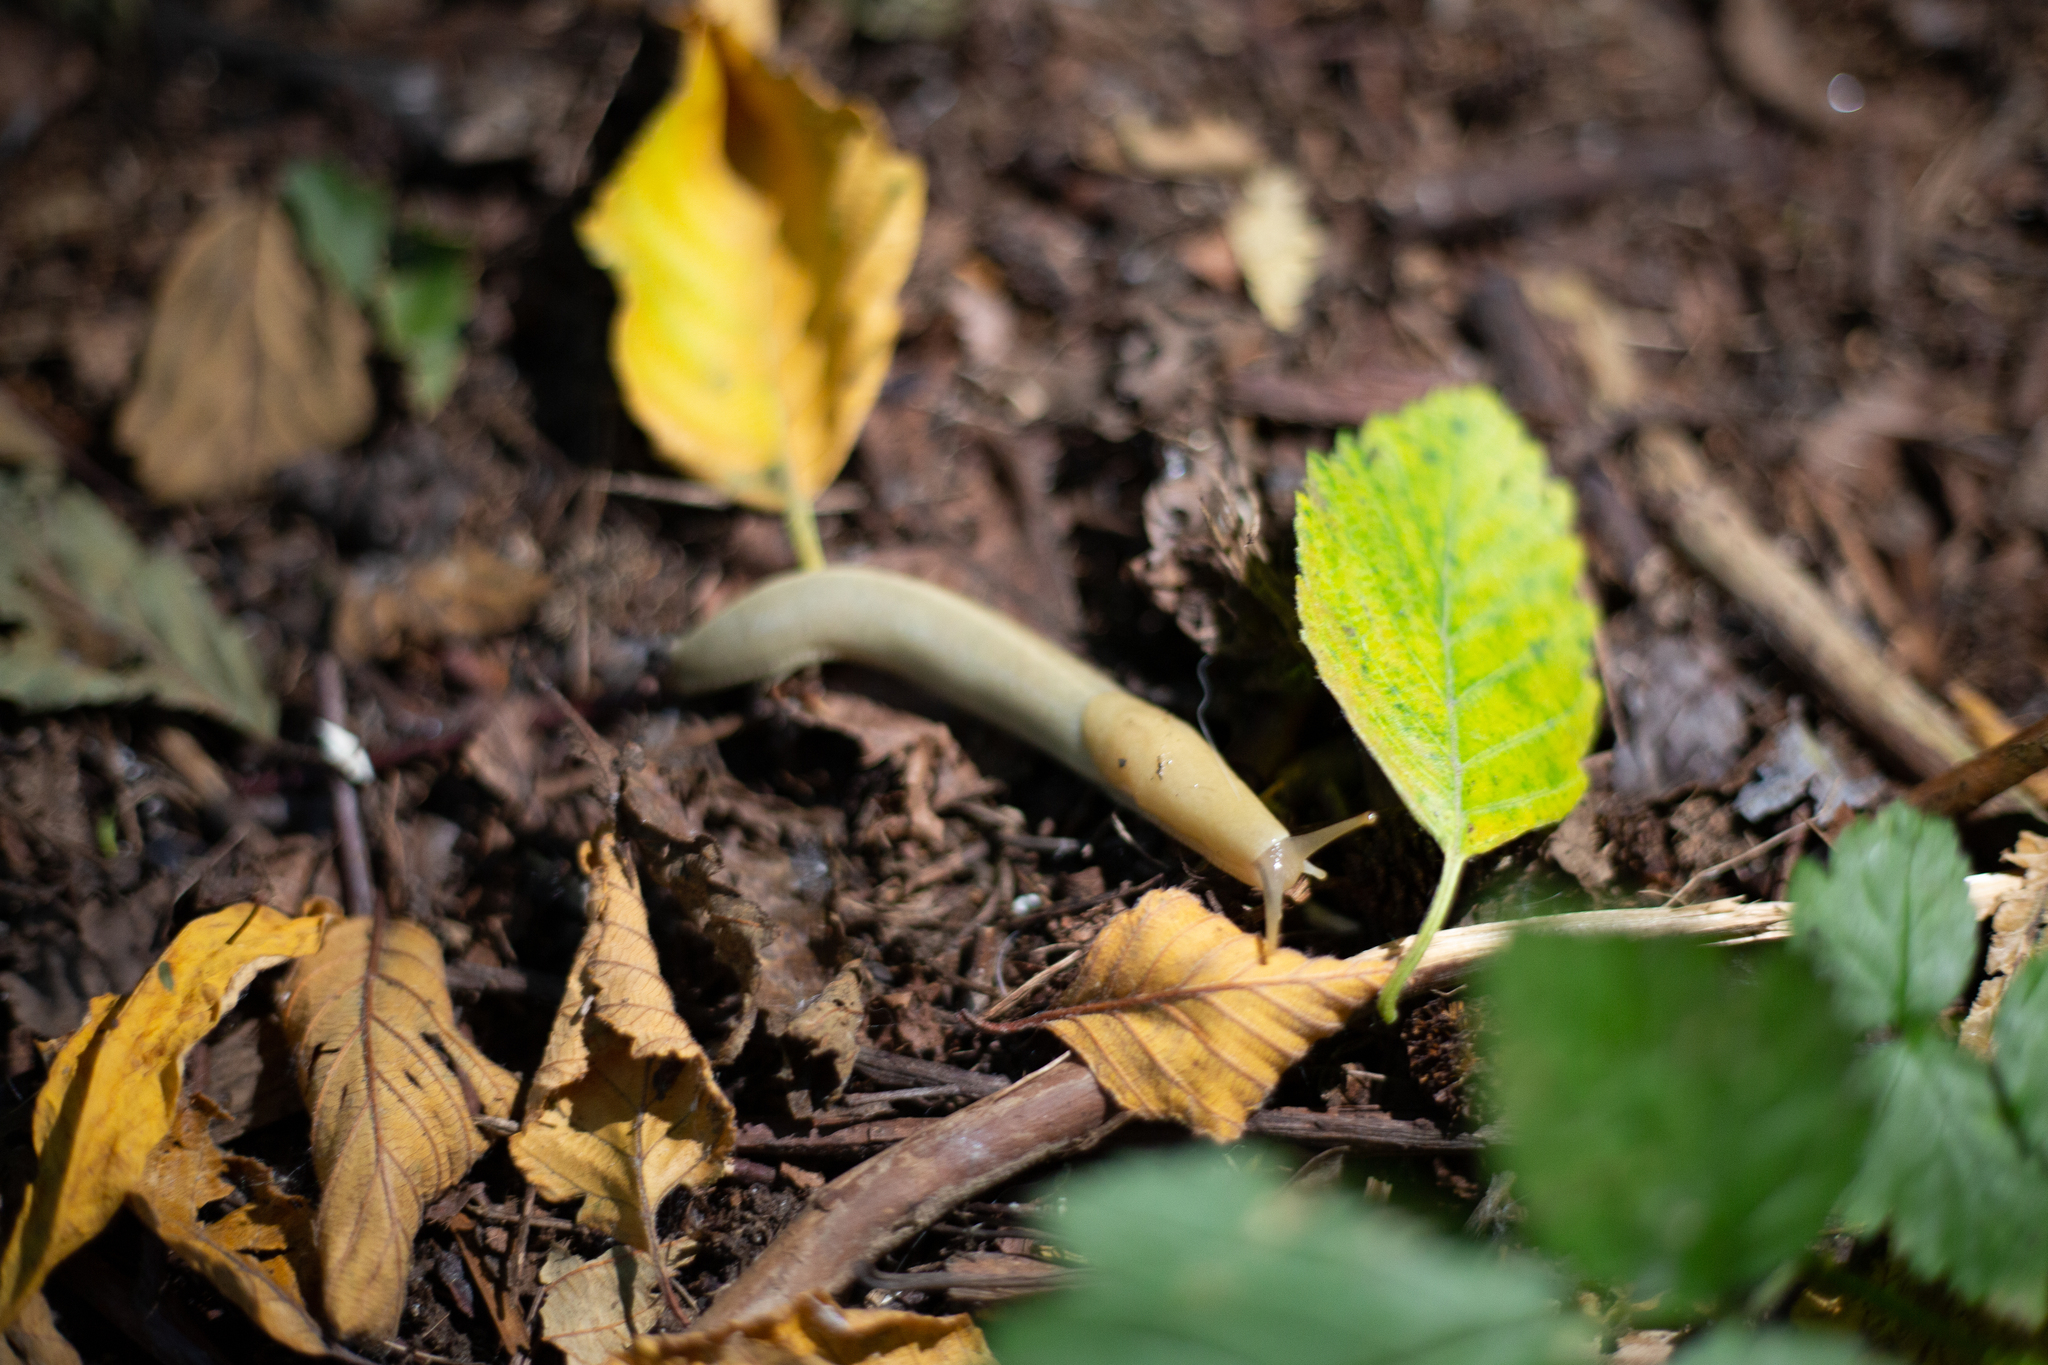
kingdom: Animalia
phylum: Mollusca
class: Gastropoda
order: Stylommatophora
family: Ariolimacidae
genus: Ariolimax
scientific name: Ariolimax columbianus
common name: Pacific banana slug
